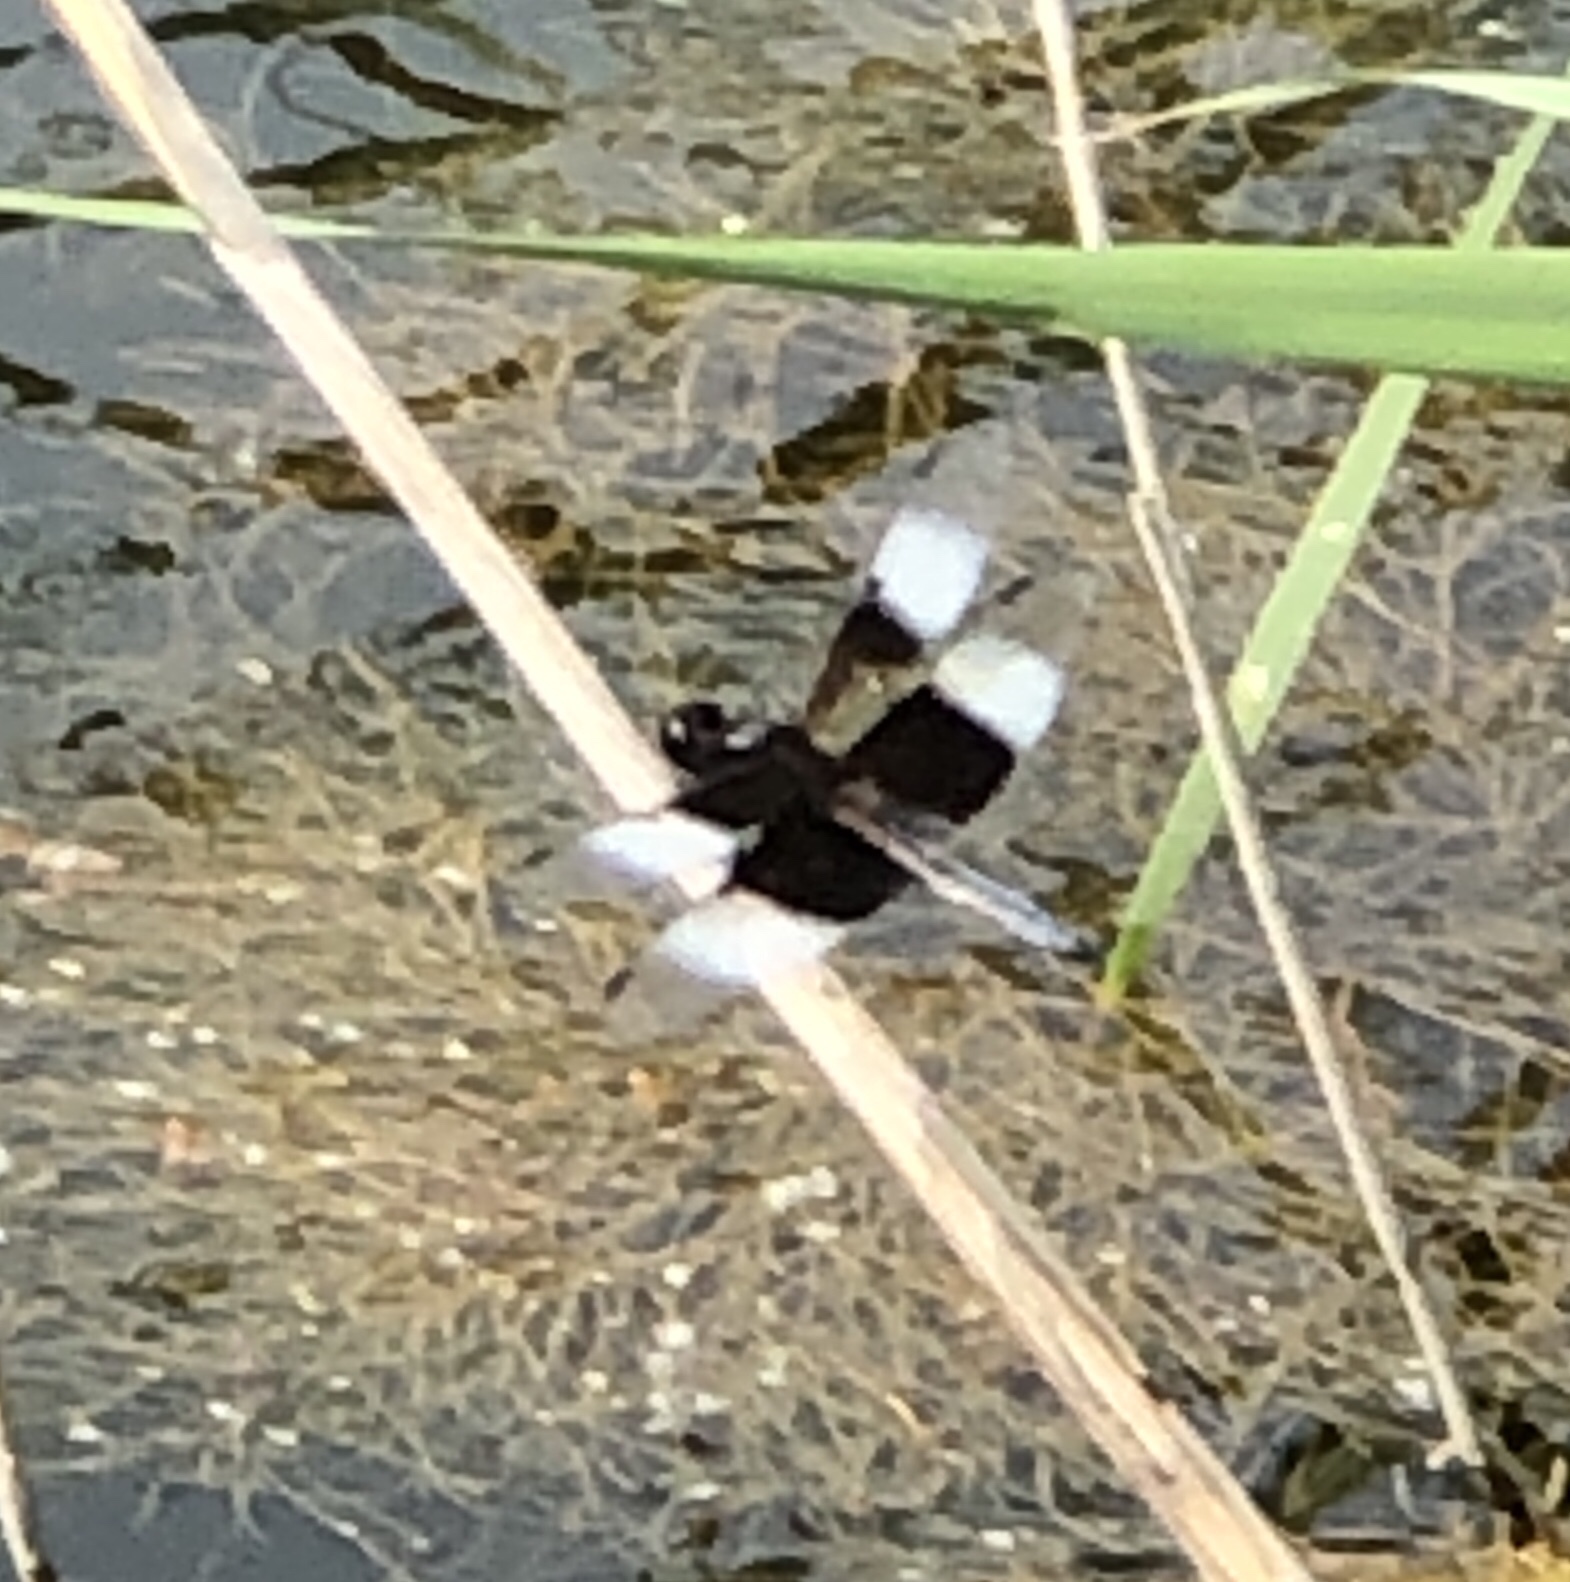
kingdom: Animalia
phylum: Arthropoda
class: Insecta
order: Odonata
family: Libellulidae
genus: Libellula
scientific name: Libellula luctuosa
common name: Widow skimmer
